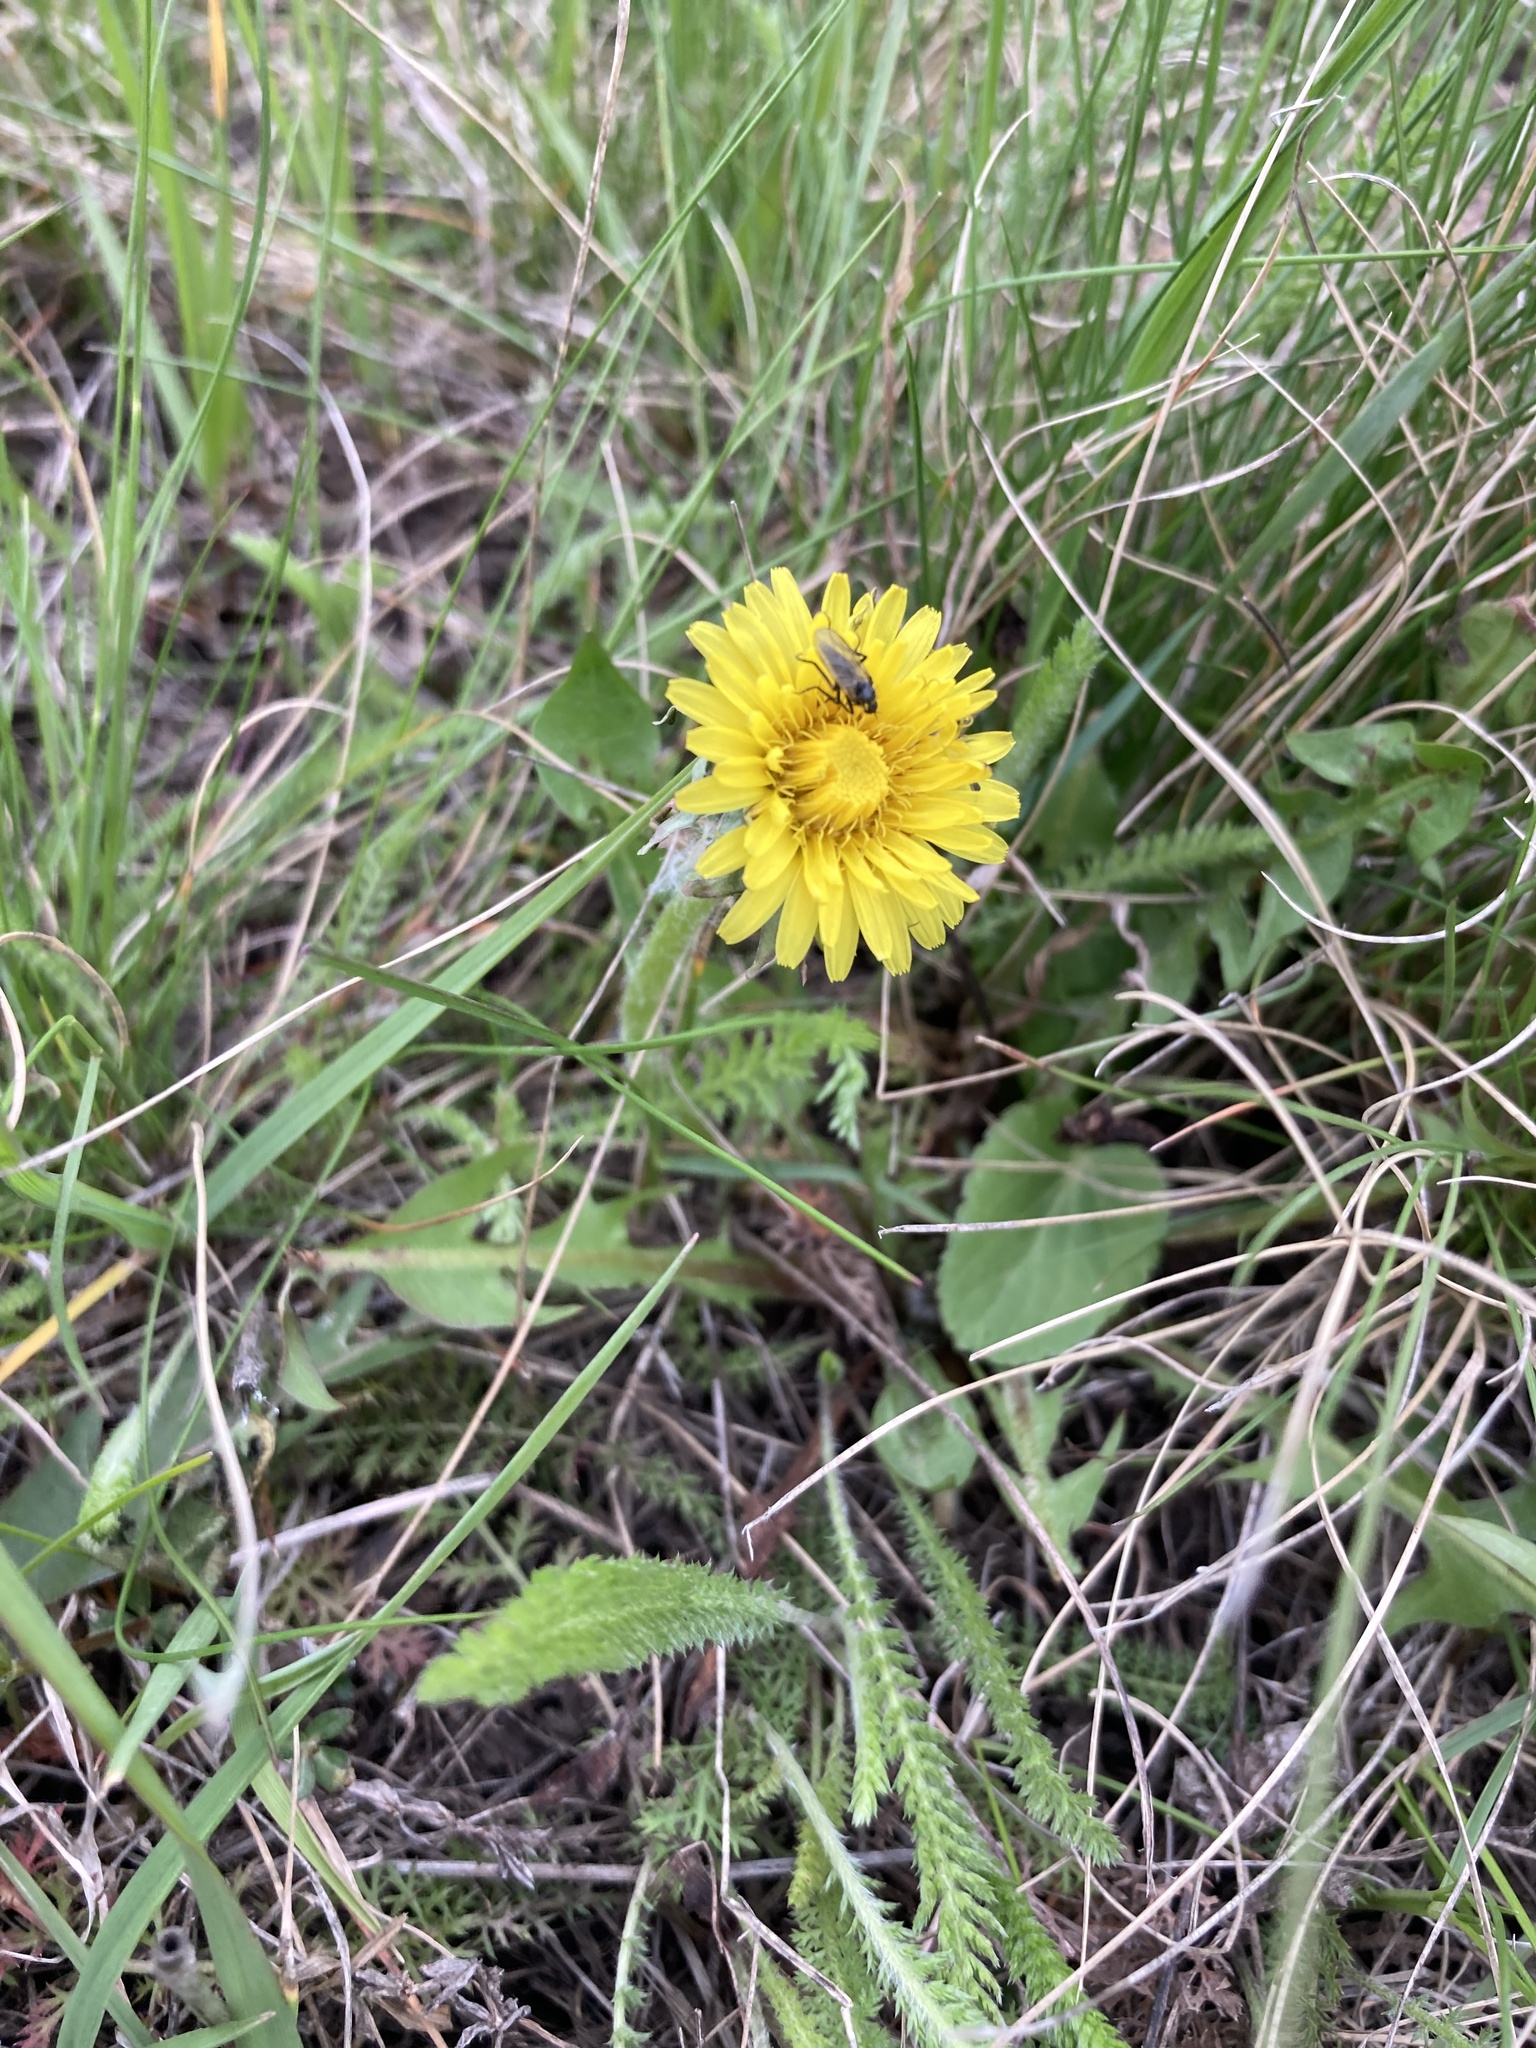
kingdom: Plantae
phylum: Tracheophyta
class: Magnoliopsida
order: Asterales
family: Asteraceae
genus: Taraxacum
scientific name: Taraxacum officinale
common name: Common dandelion
